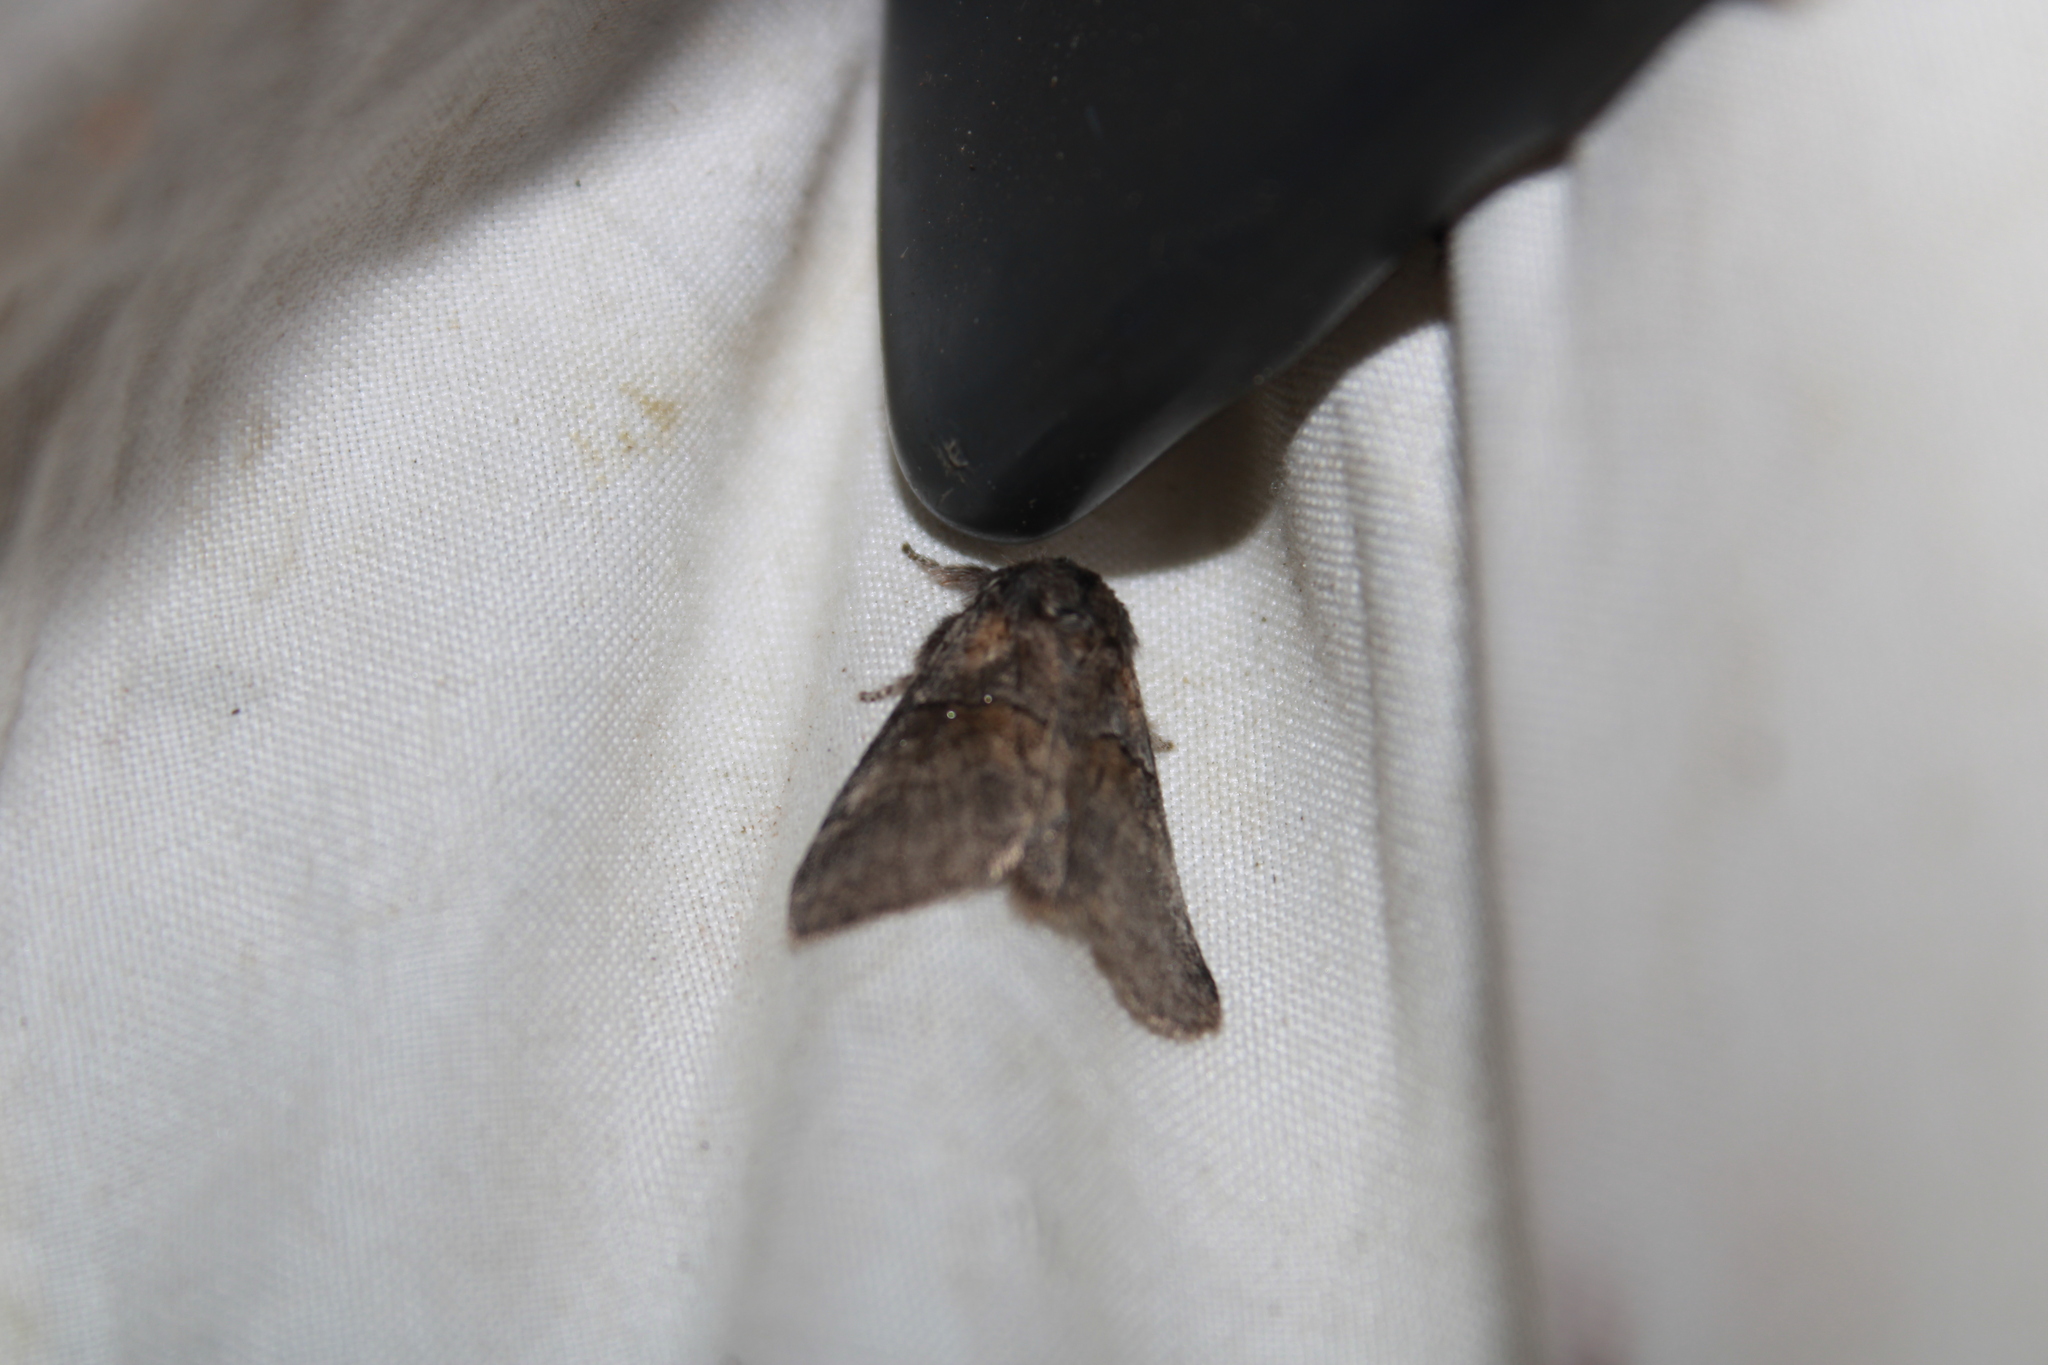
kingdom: Animalia
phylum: Arthropoda
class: Insecta
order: Lepidoptera
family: Notodontidae
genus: Gluphisia
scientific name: Gluphisia septentrionis
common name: Common gluphisia
